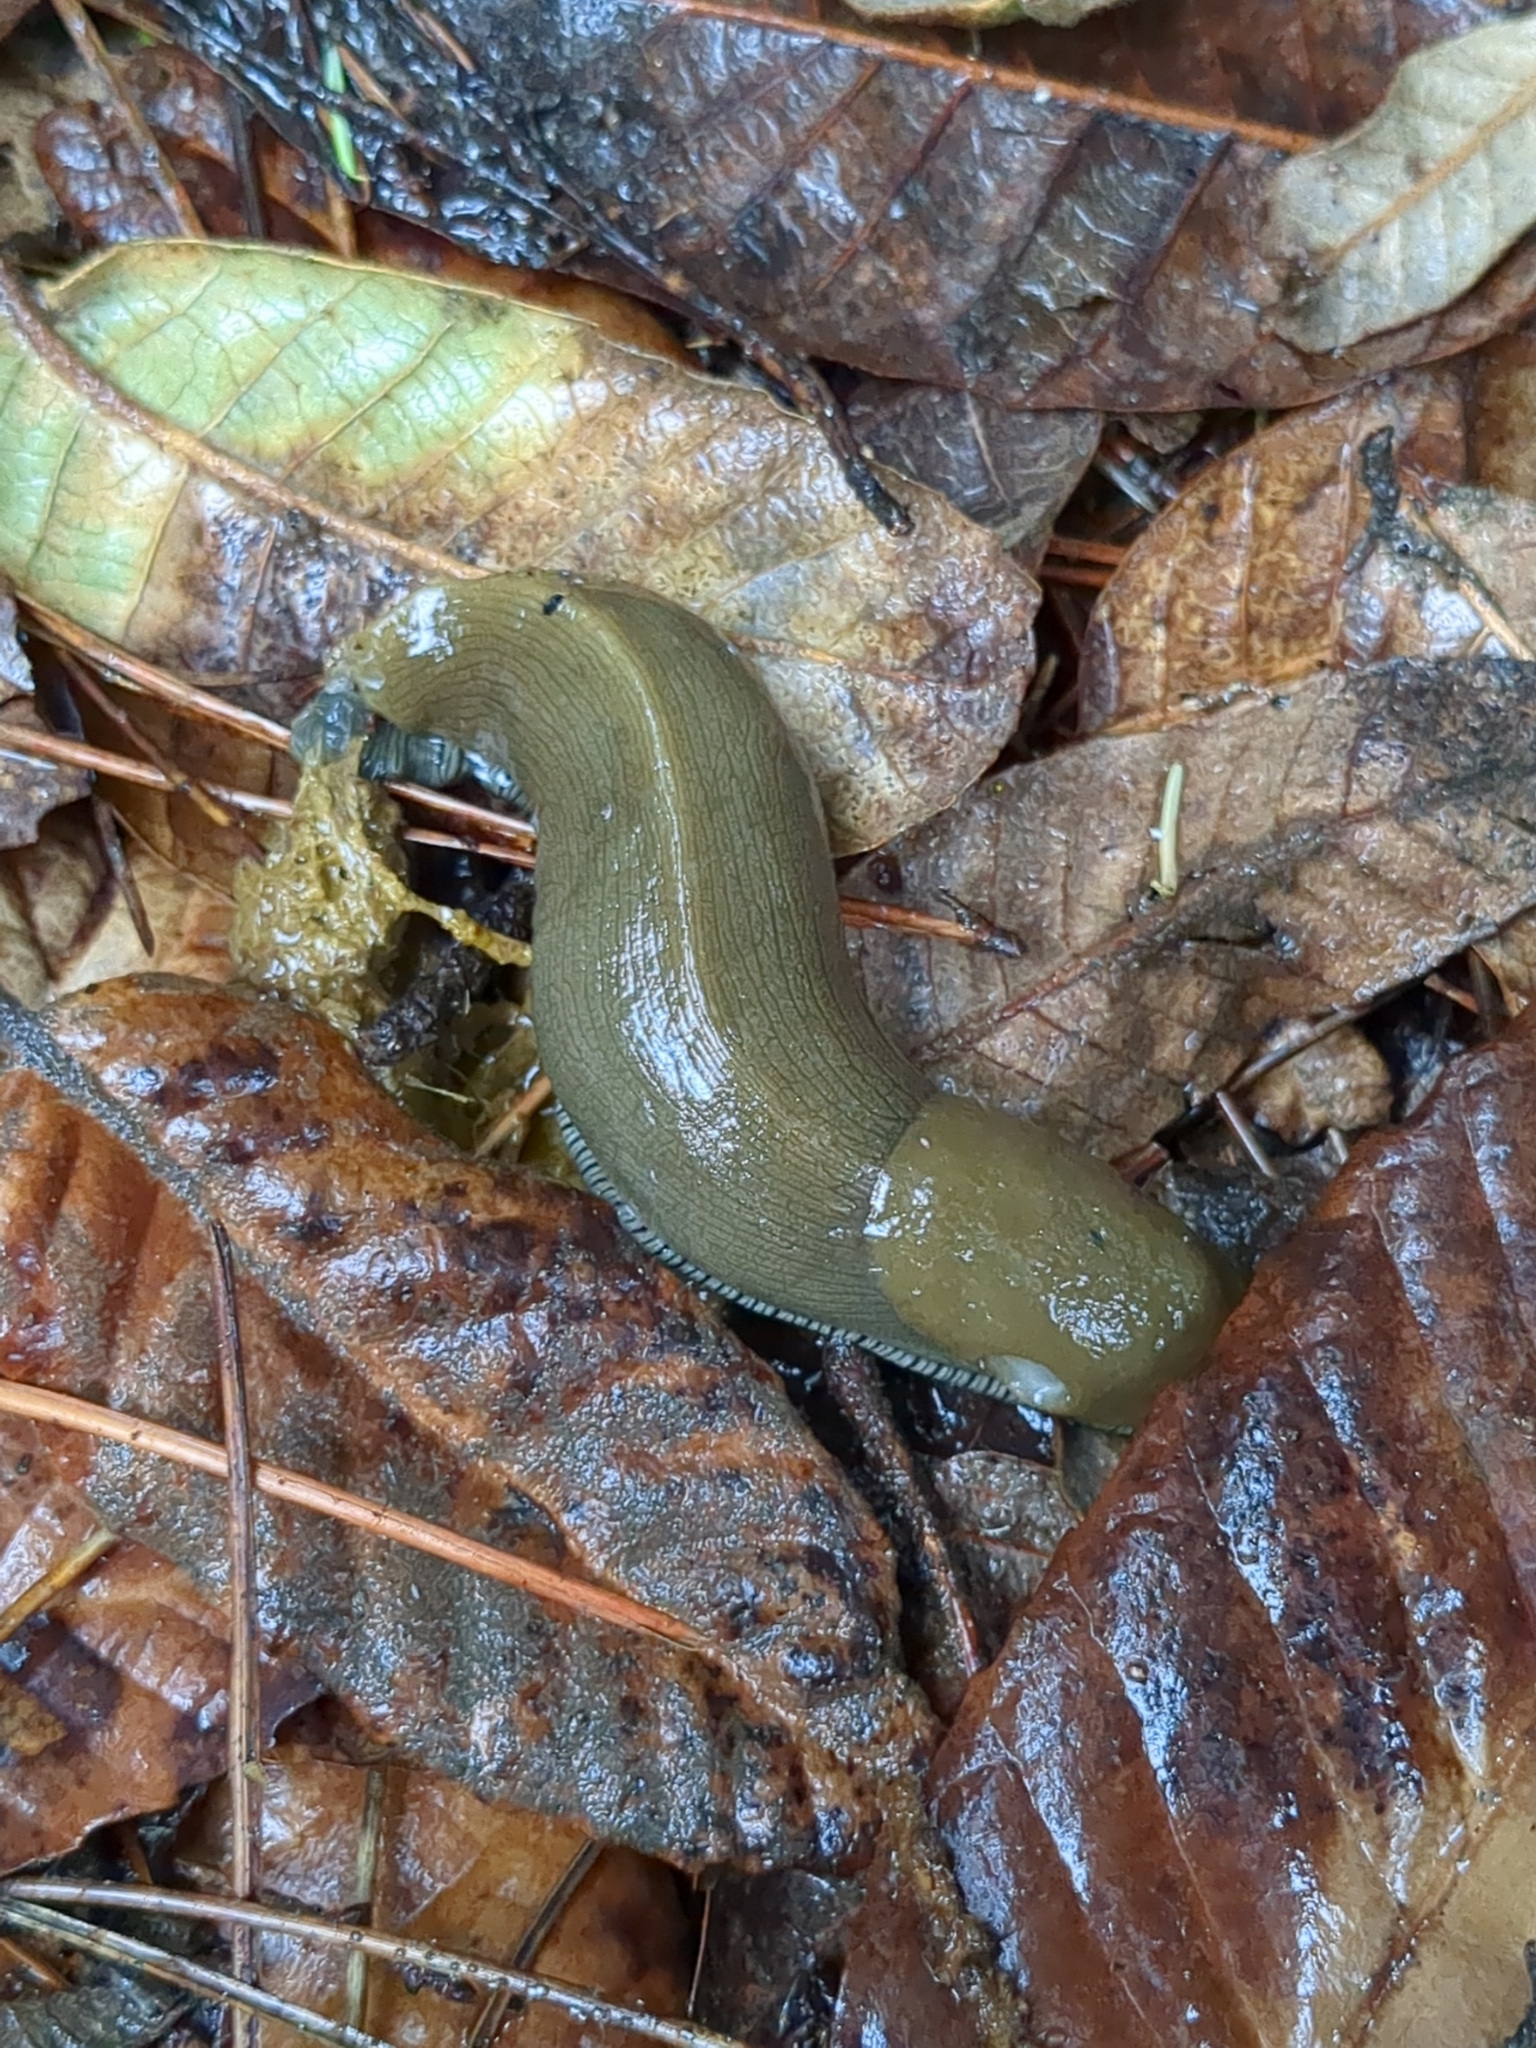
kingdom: Animalia
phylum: Mollusca
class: Gastropoda
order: Stylommatophora
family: Ariolimacidae
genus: Ariolimax
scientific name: Ariolimax buttoni
